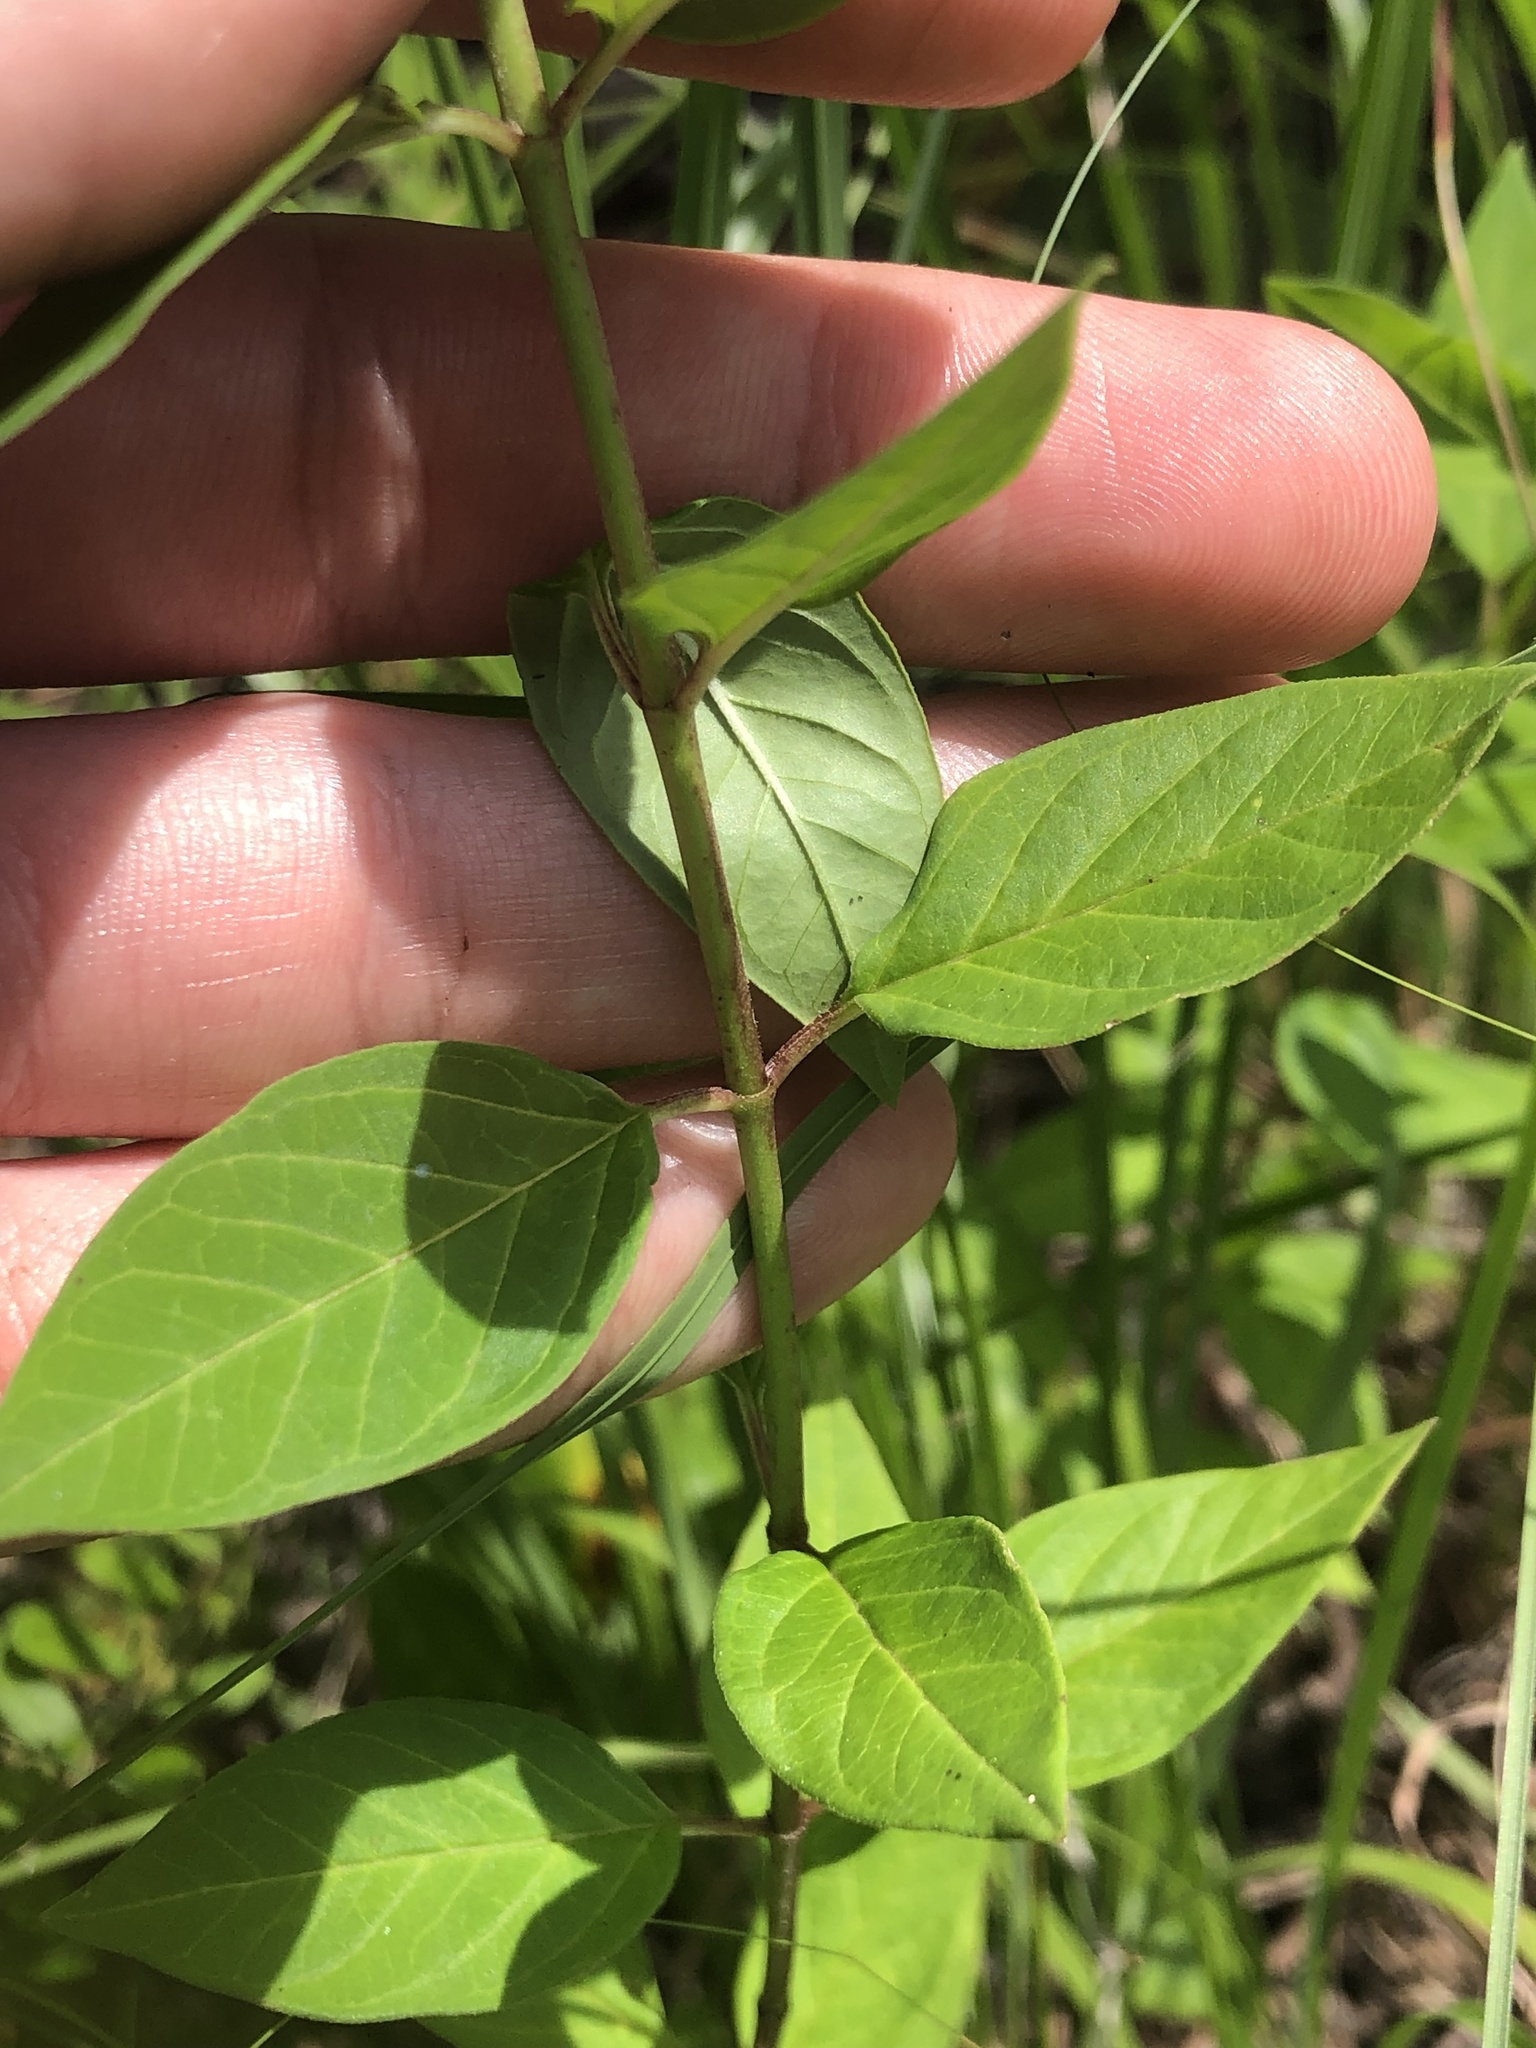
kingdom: Plantae
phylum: Tracheophyta
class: Magnoliopsida
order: Gentianales
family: Apocynaceae
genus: Asclepias
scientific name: Asclepias texana
